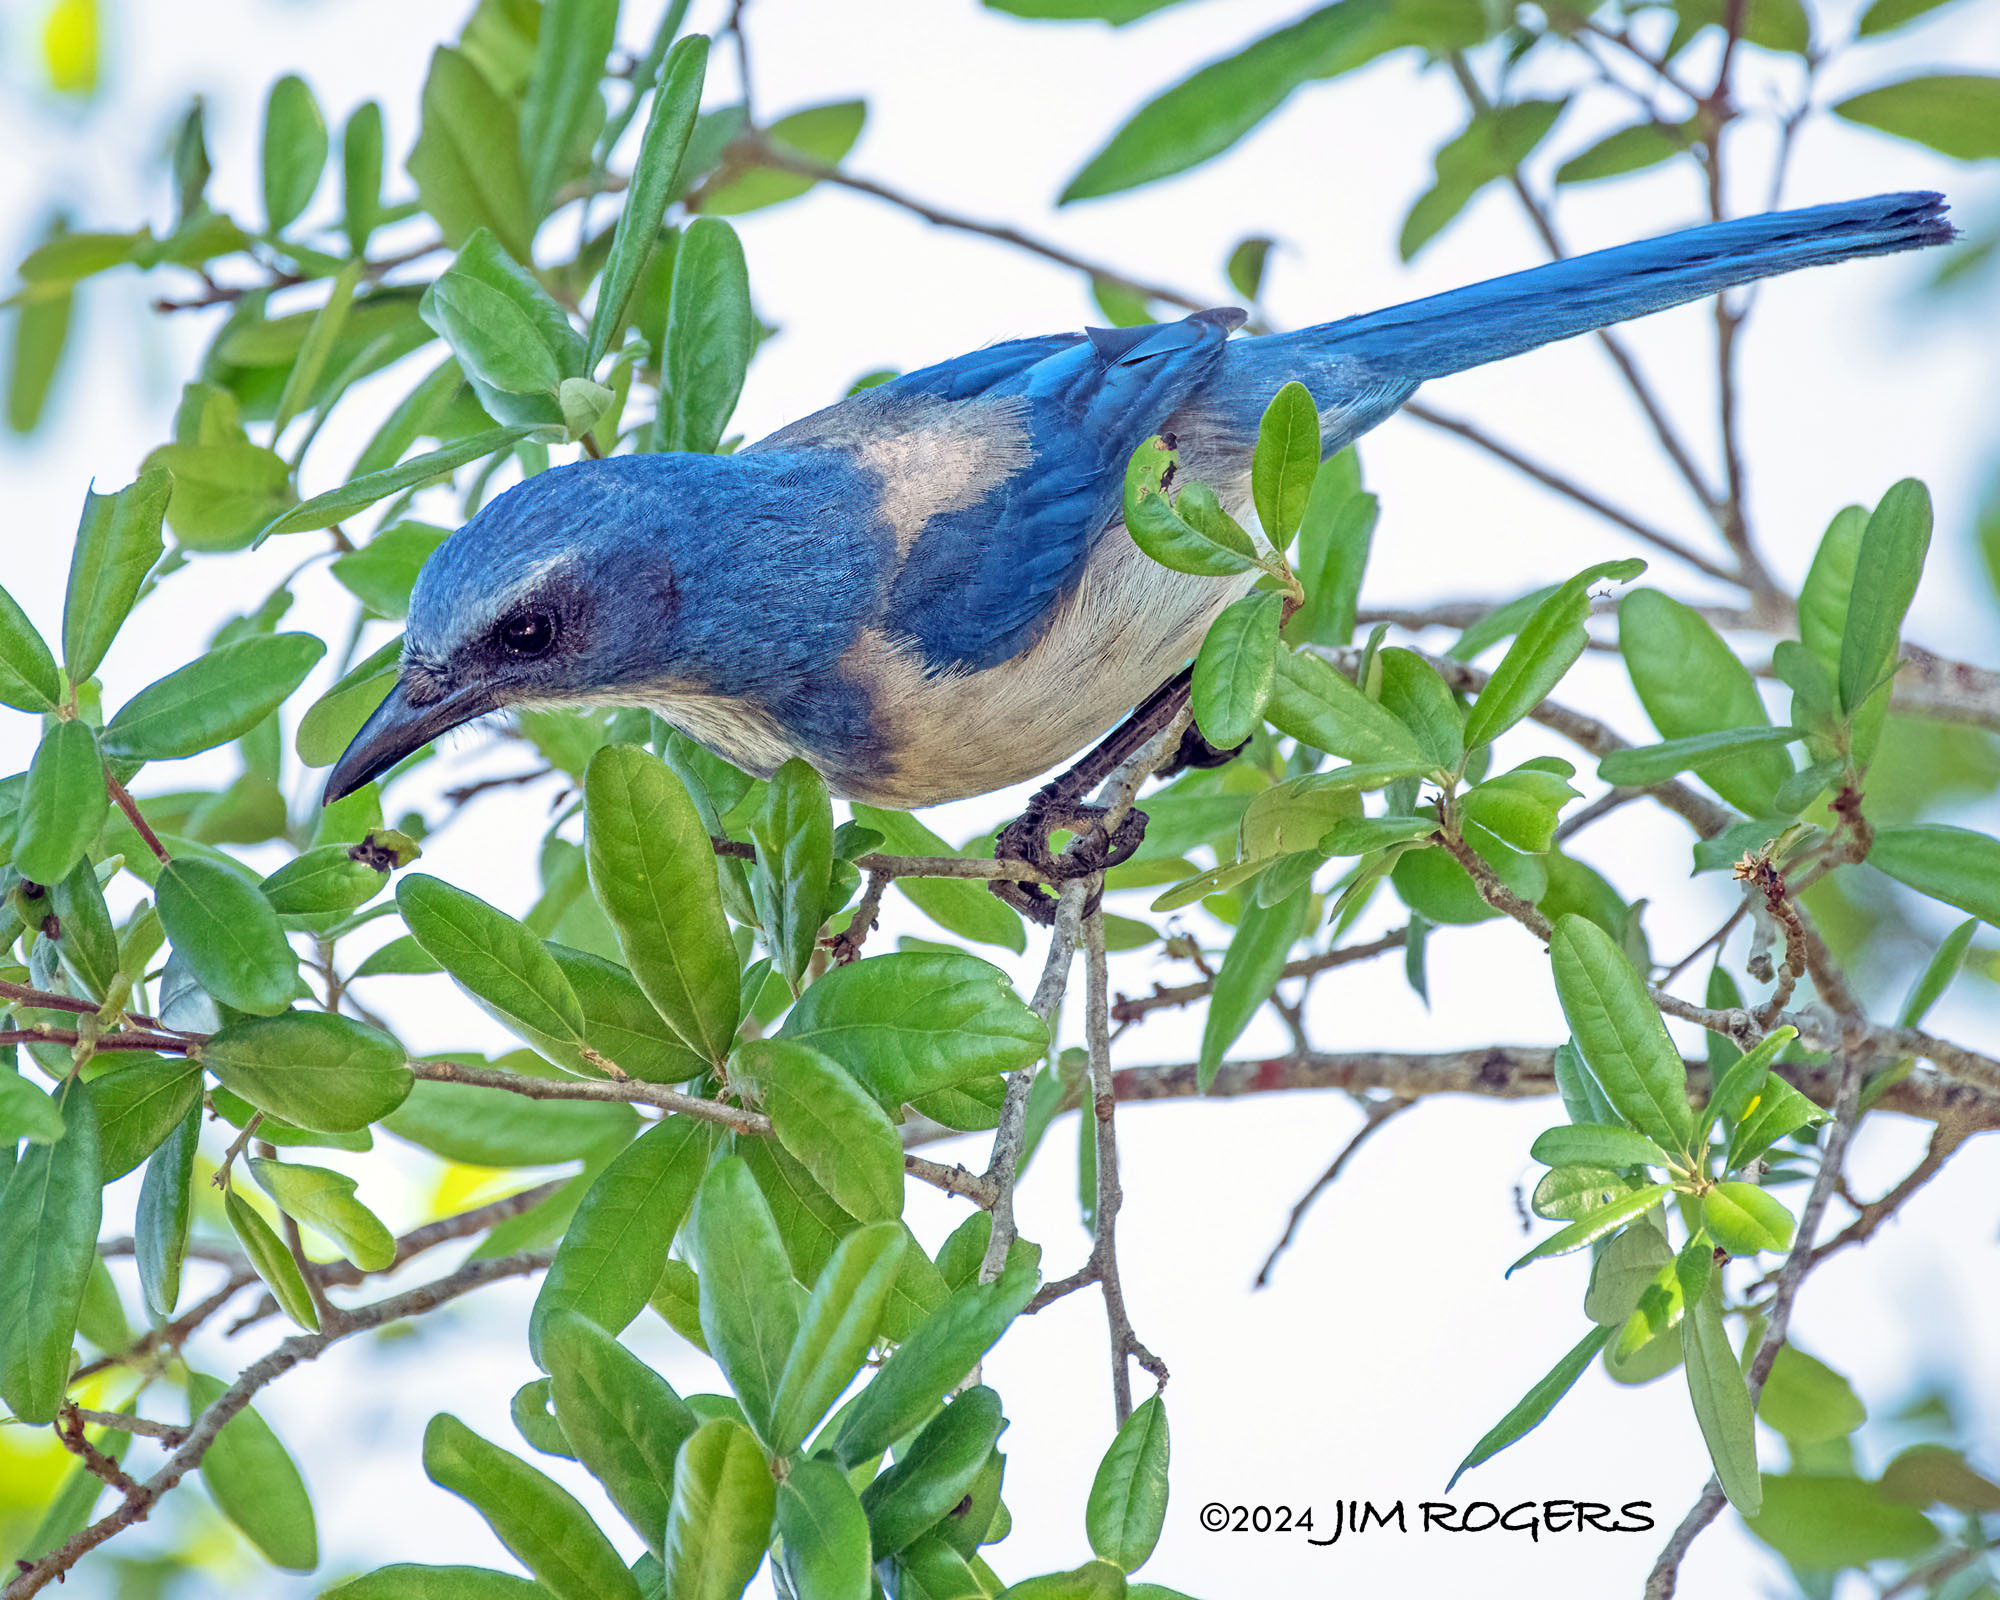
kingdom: Animalia
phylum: Chordata
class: Aves
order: Passeriformes
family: Corvidae
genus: Aphelocoma
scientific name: Aphelocoma coerulescens
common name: Florida scrub jay
